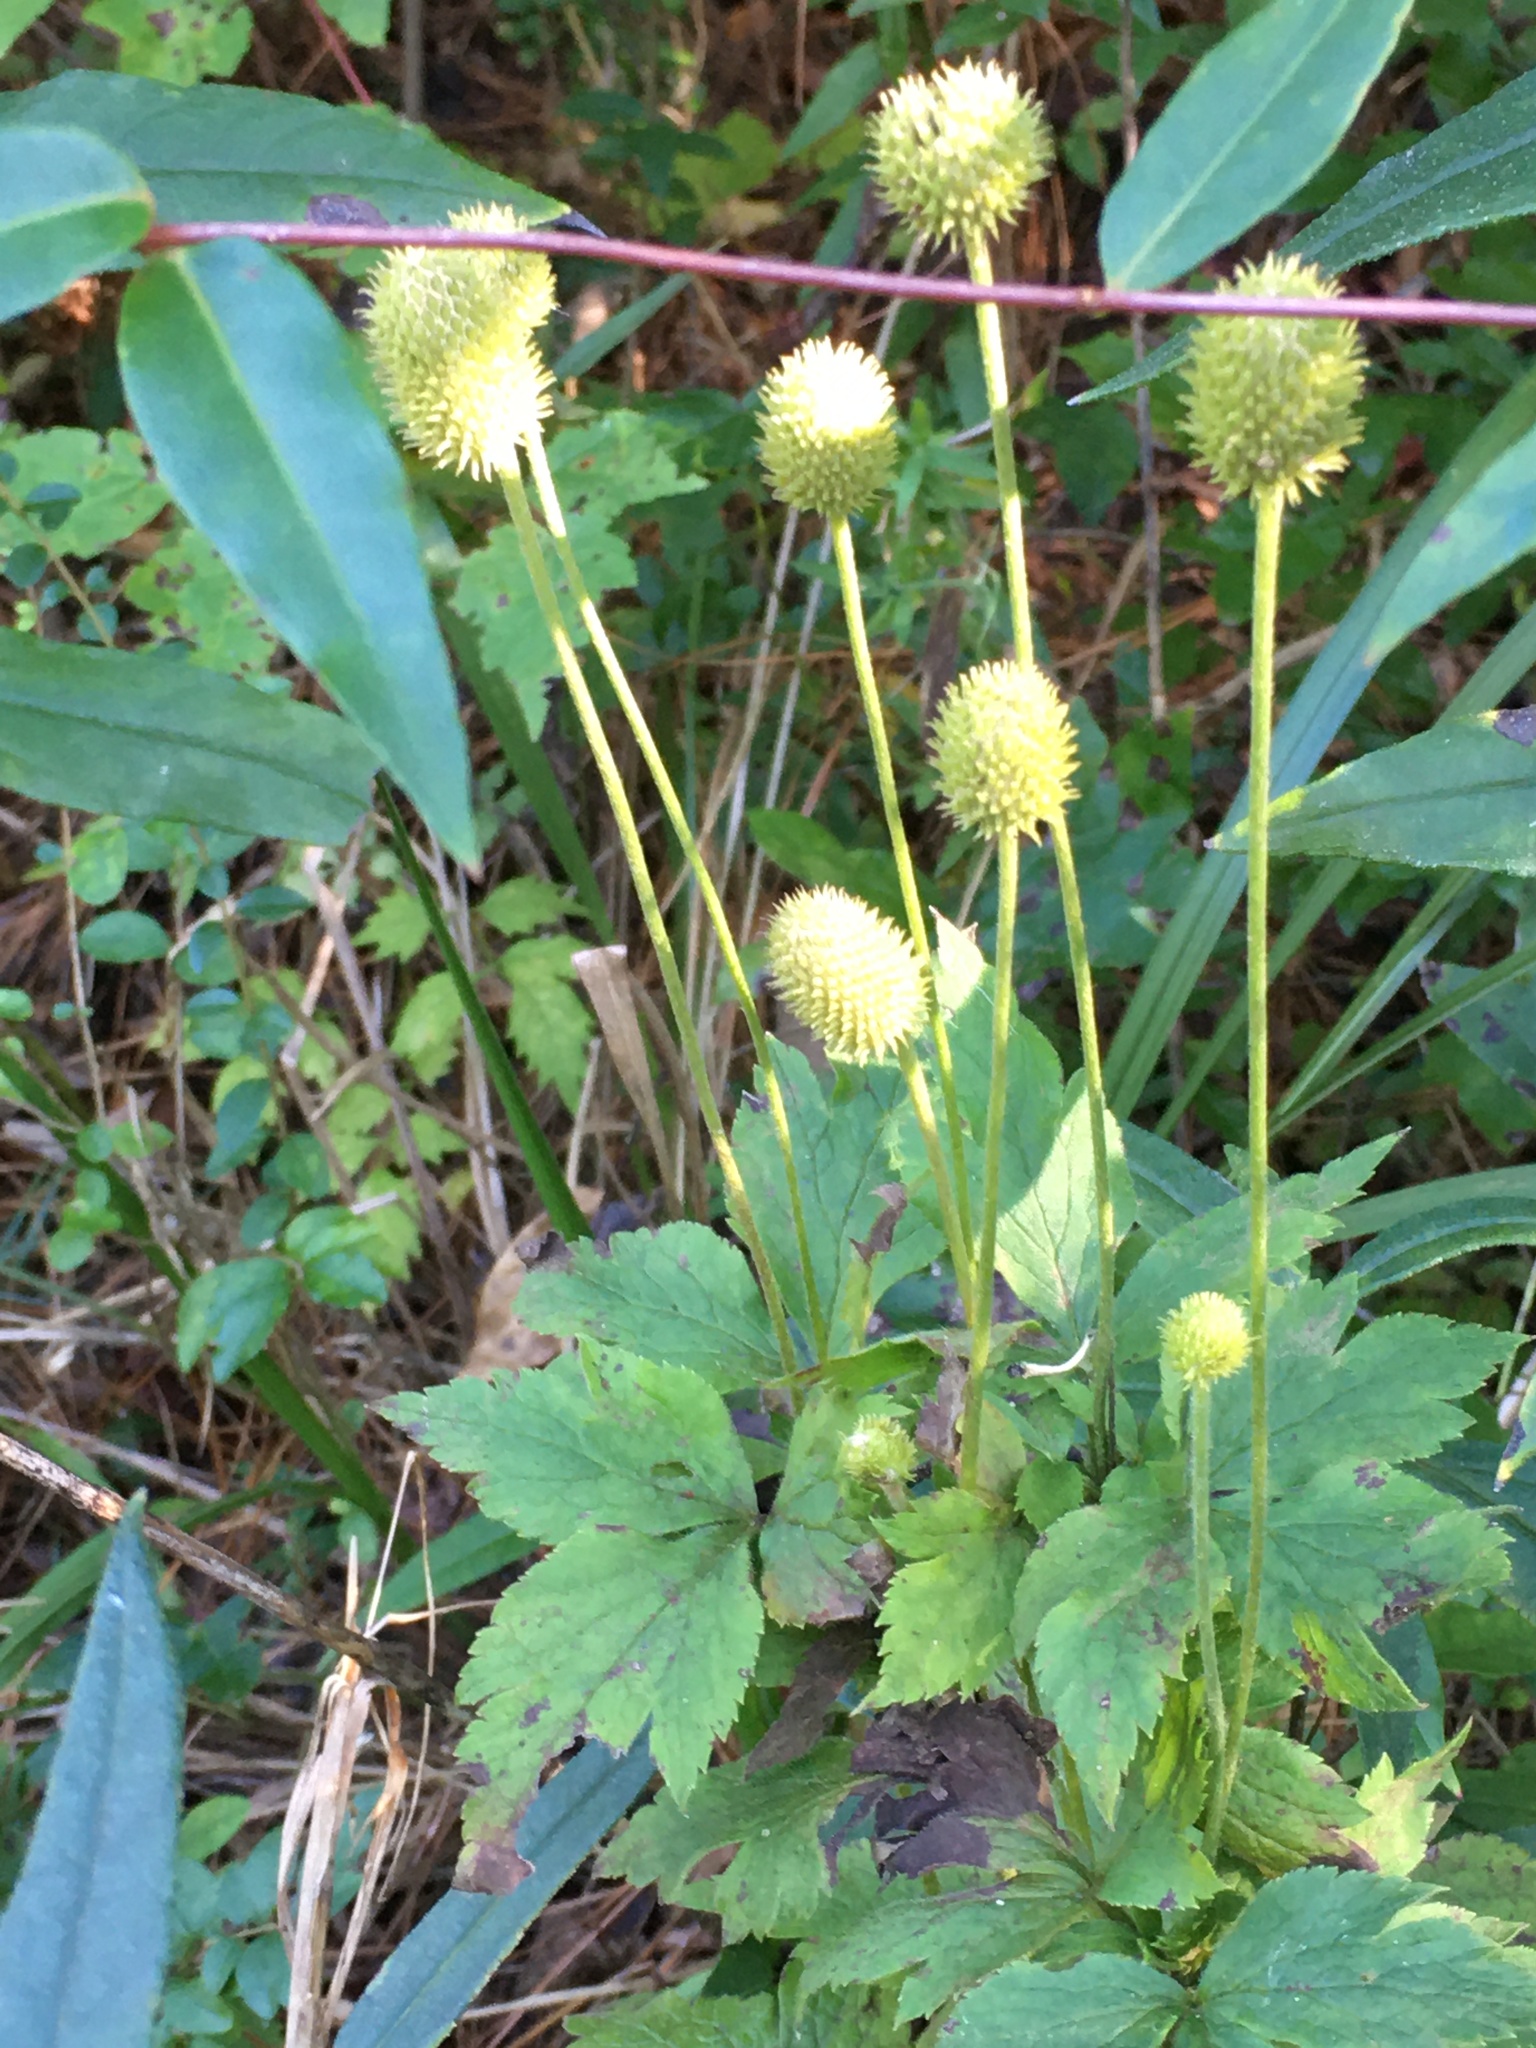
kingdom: Plantae
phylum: Tracheophyta
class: Magnoliopsida
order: Ranunculales
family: Ranunculaceae
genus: Anemone
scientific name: Anemone virginiana
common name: Tall anemone
